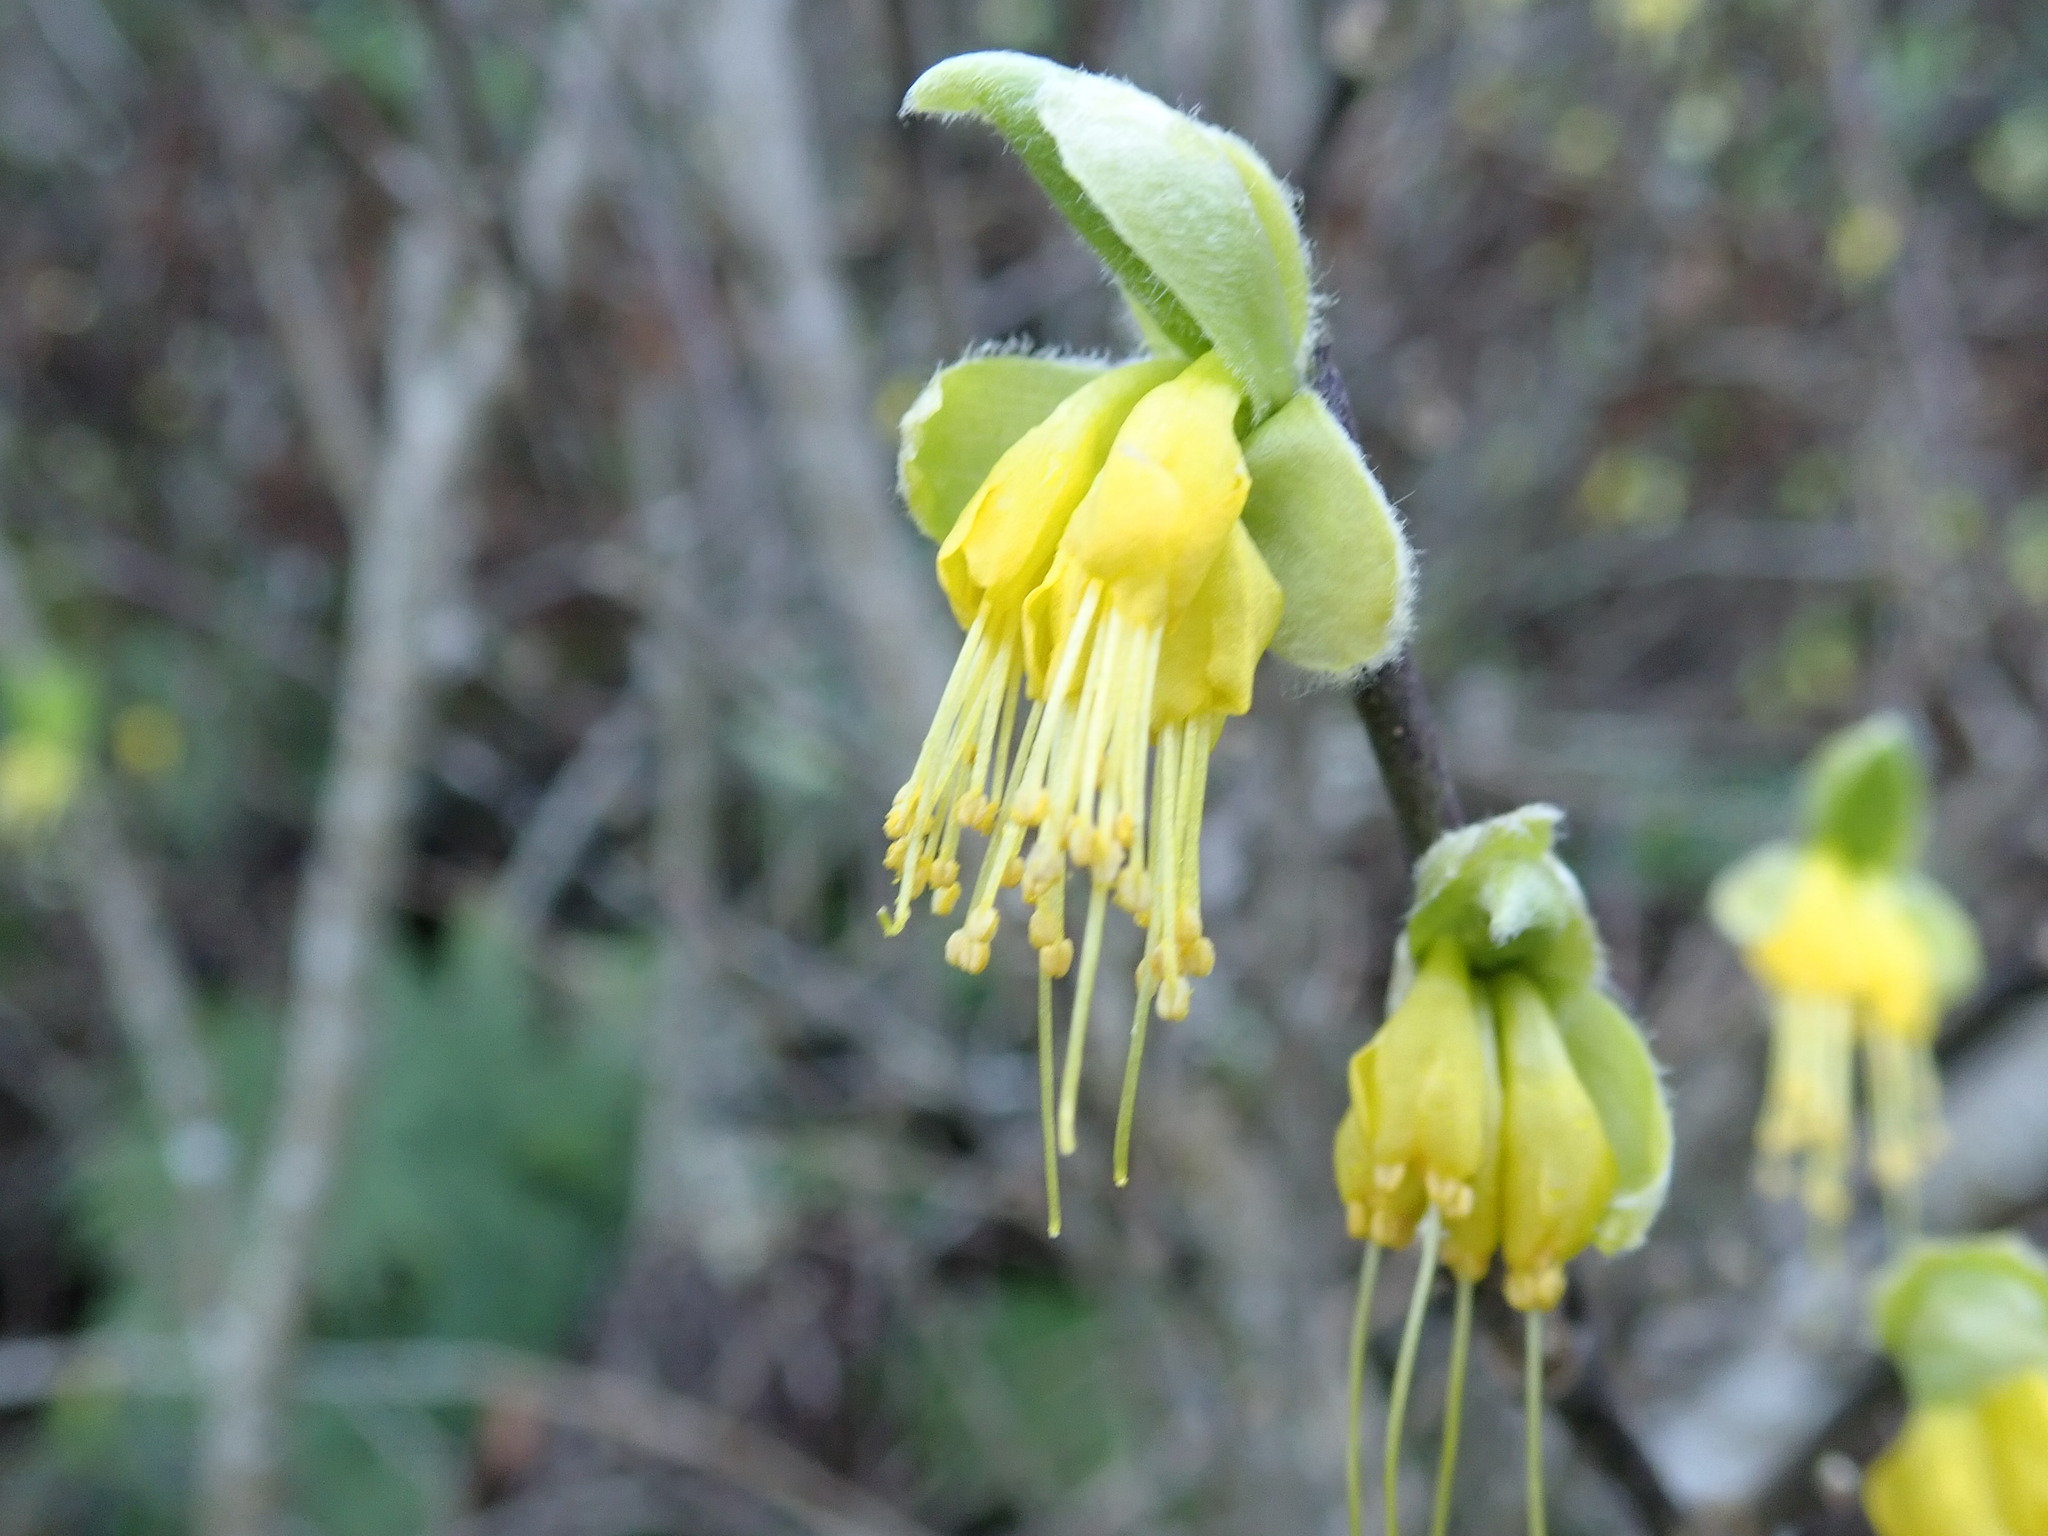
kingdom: Plantae
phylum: Tracheophyta
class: Magnoliopsida
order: Malvales
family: Thymelaeaceae
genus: Dirca
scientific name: Dirca occidentalis
